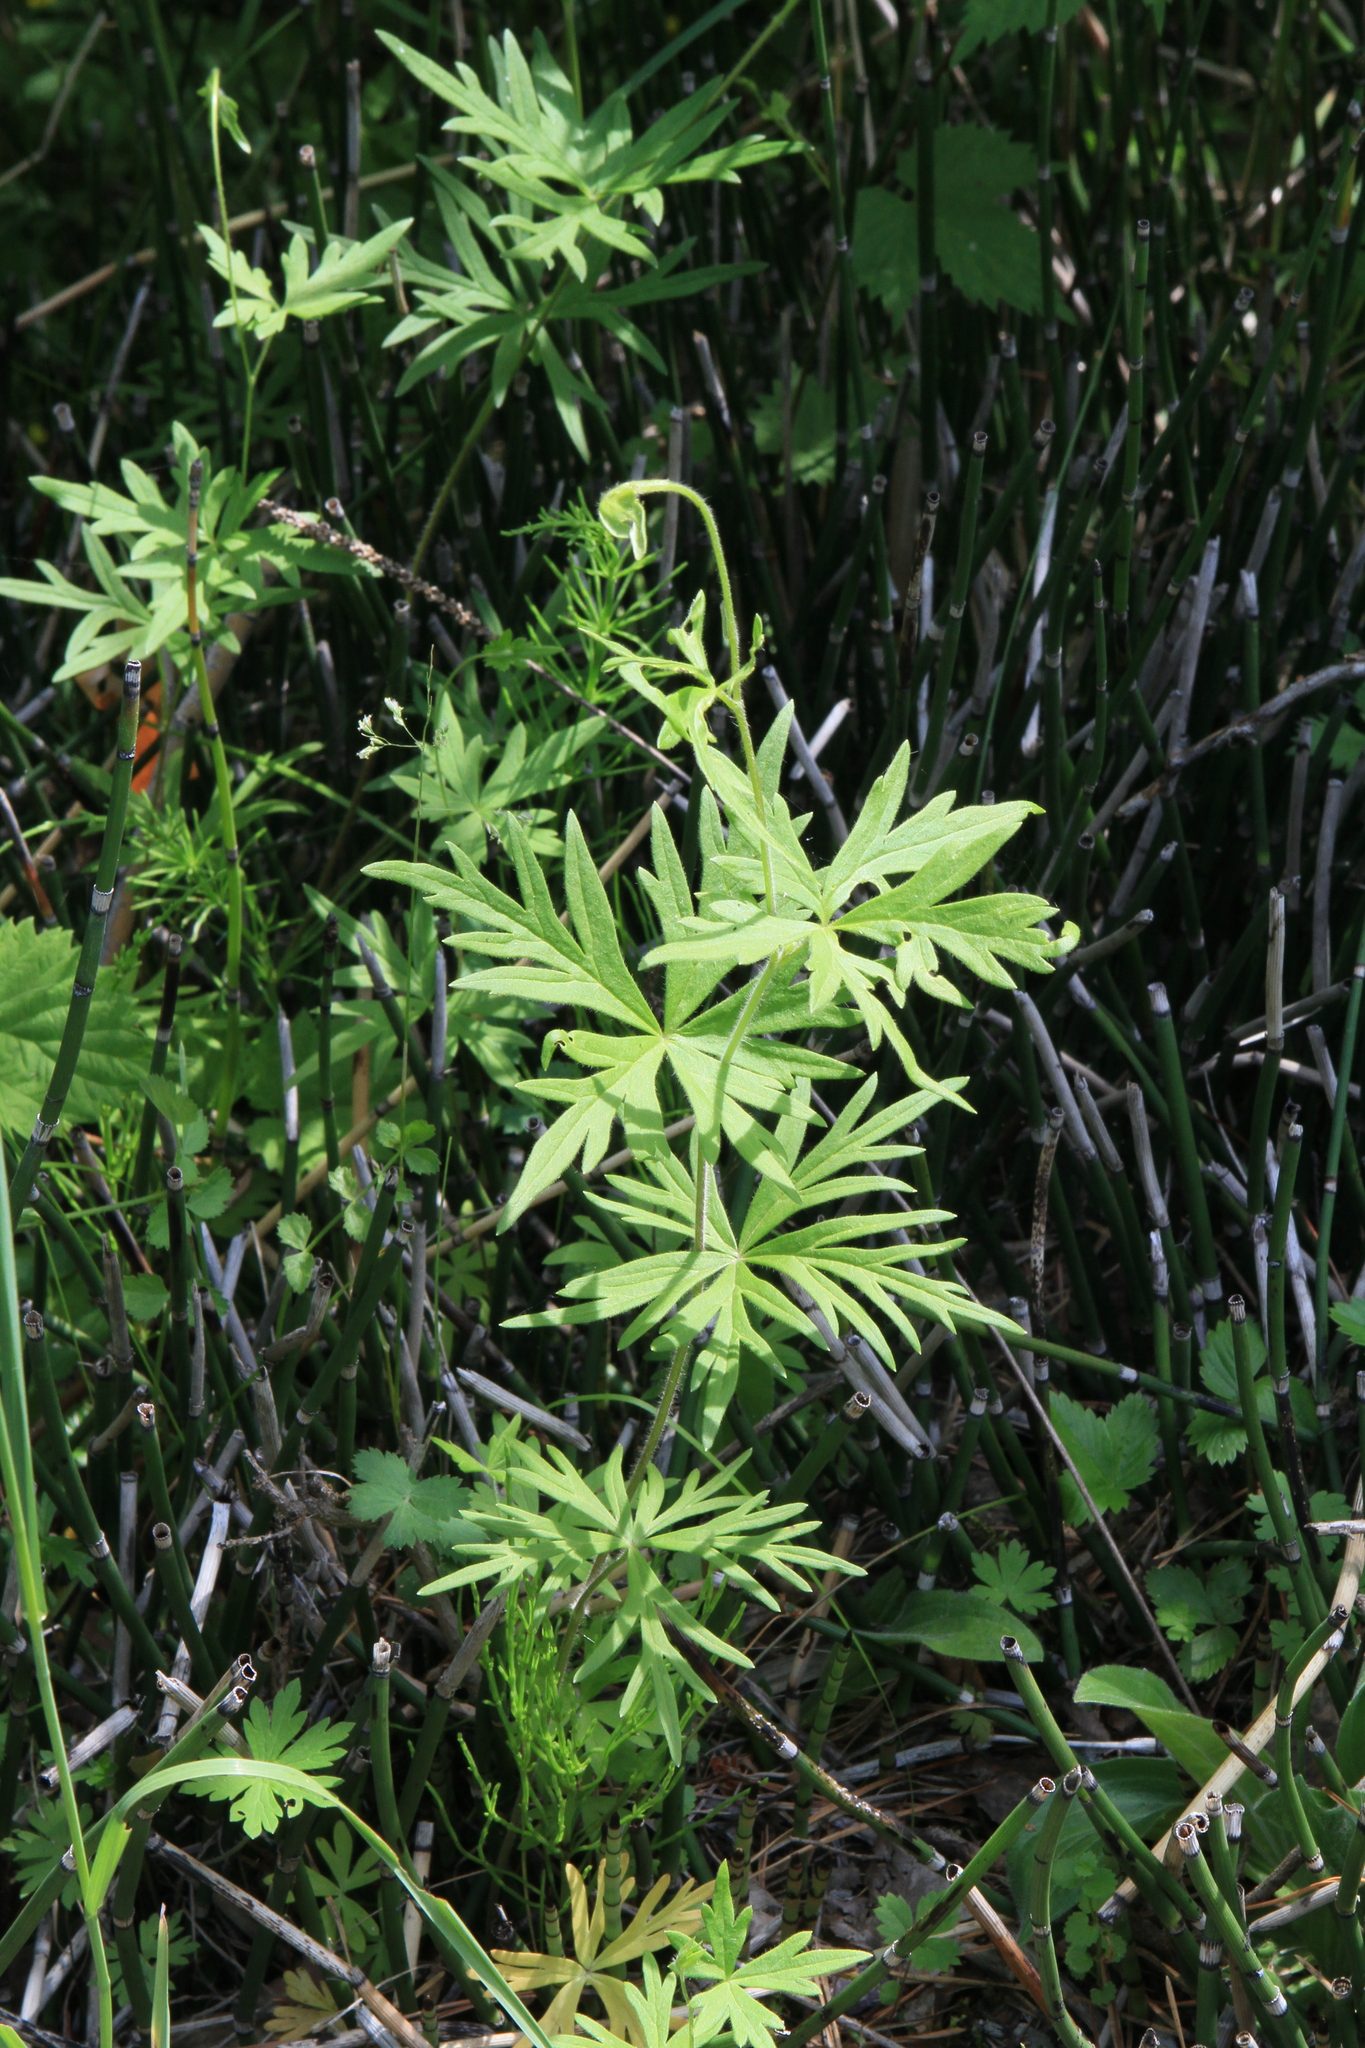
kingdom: Plantae
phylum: Tracheophyta
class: Magnoliopsida
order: Ranunculales
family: Ranunculaceae
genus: Aconitum
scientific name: Aconitum volubile
